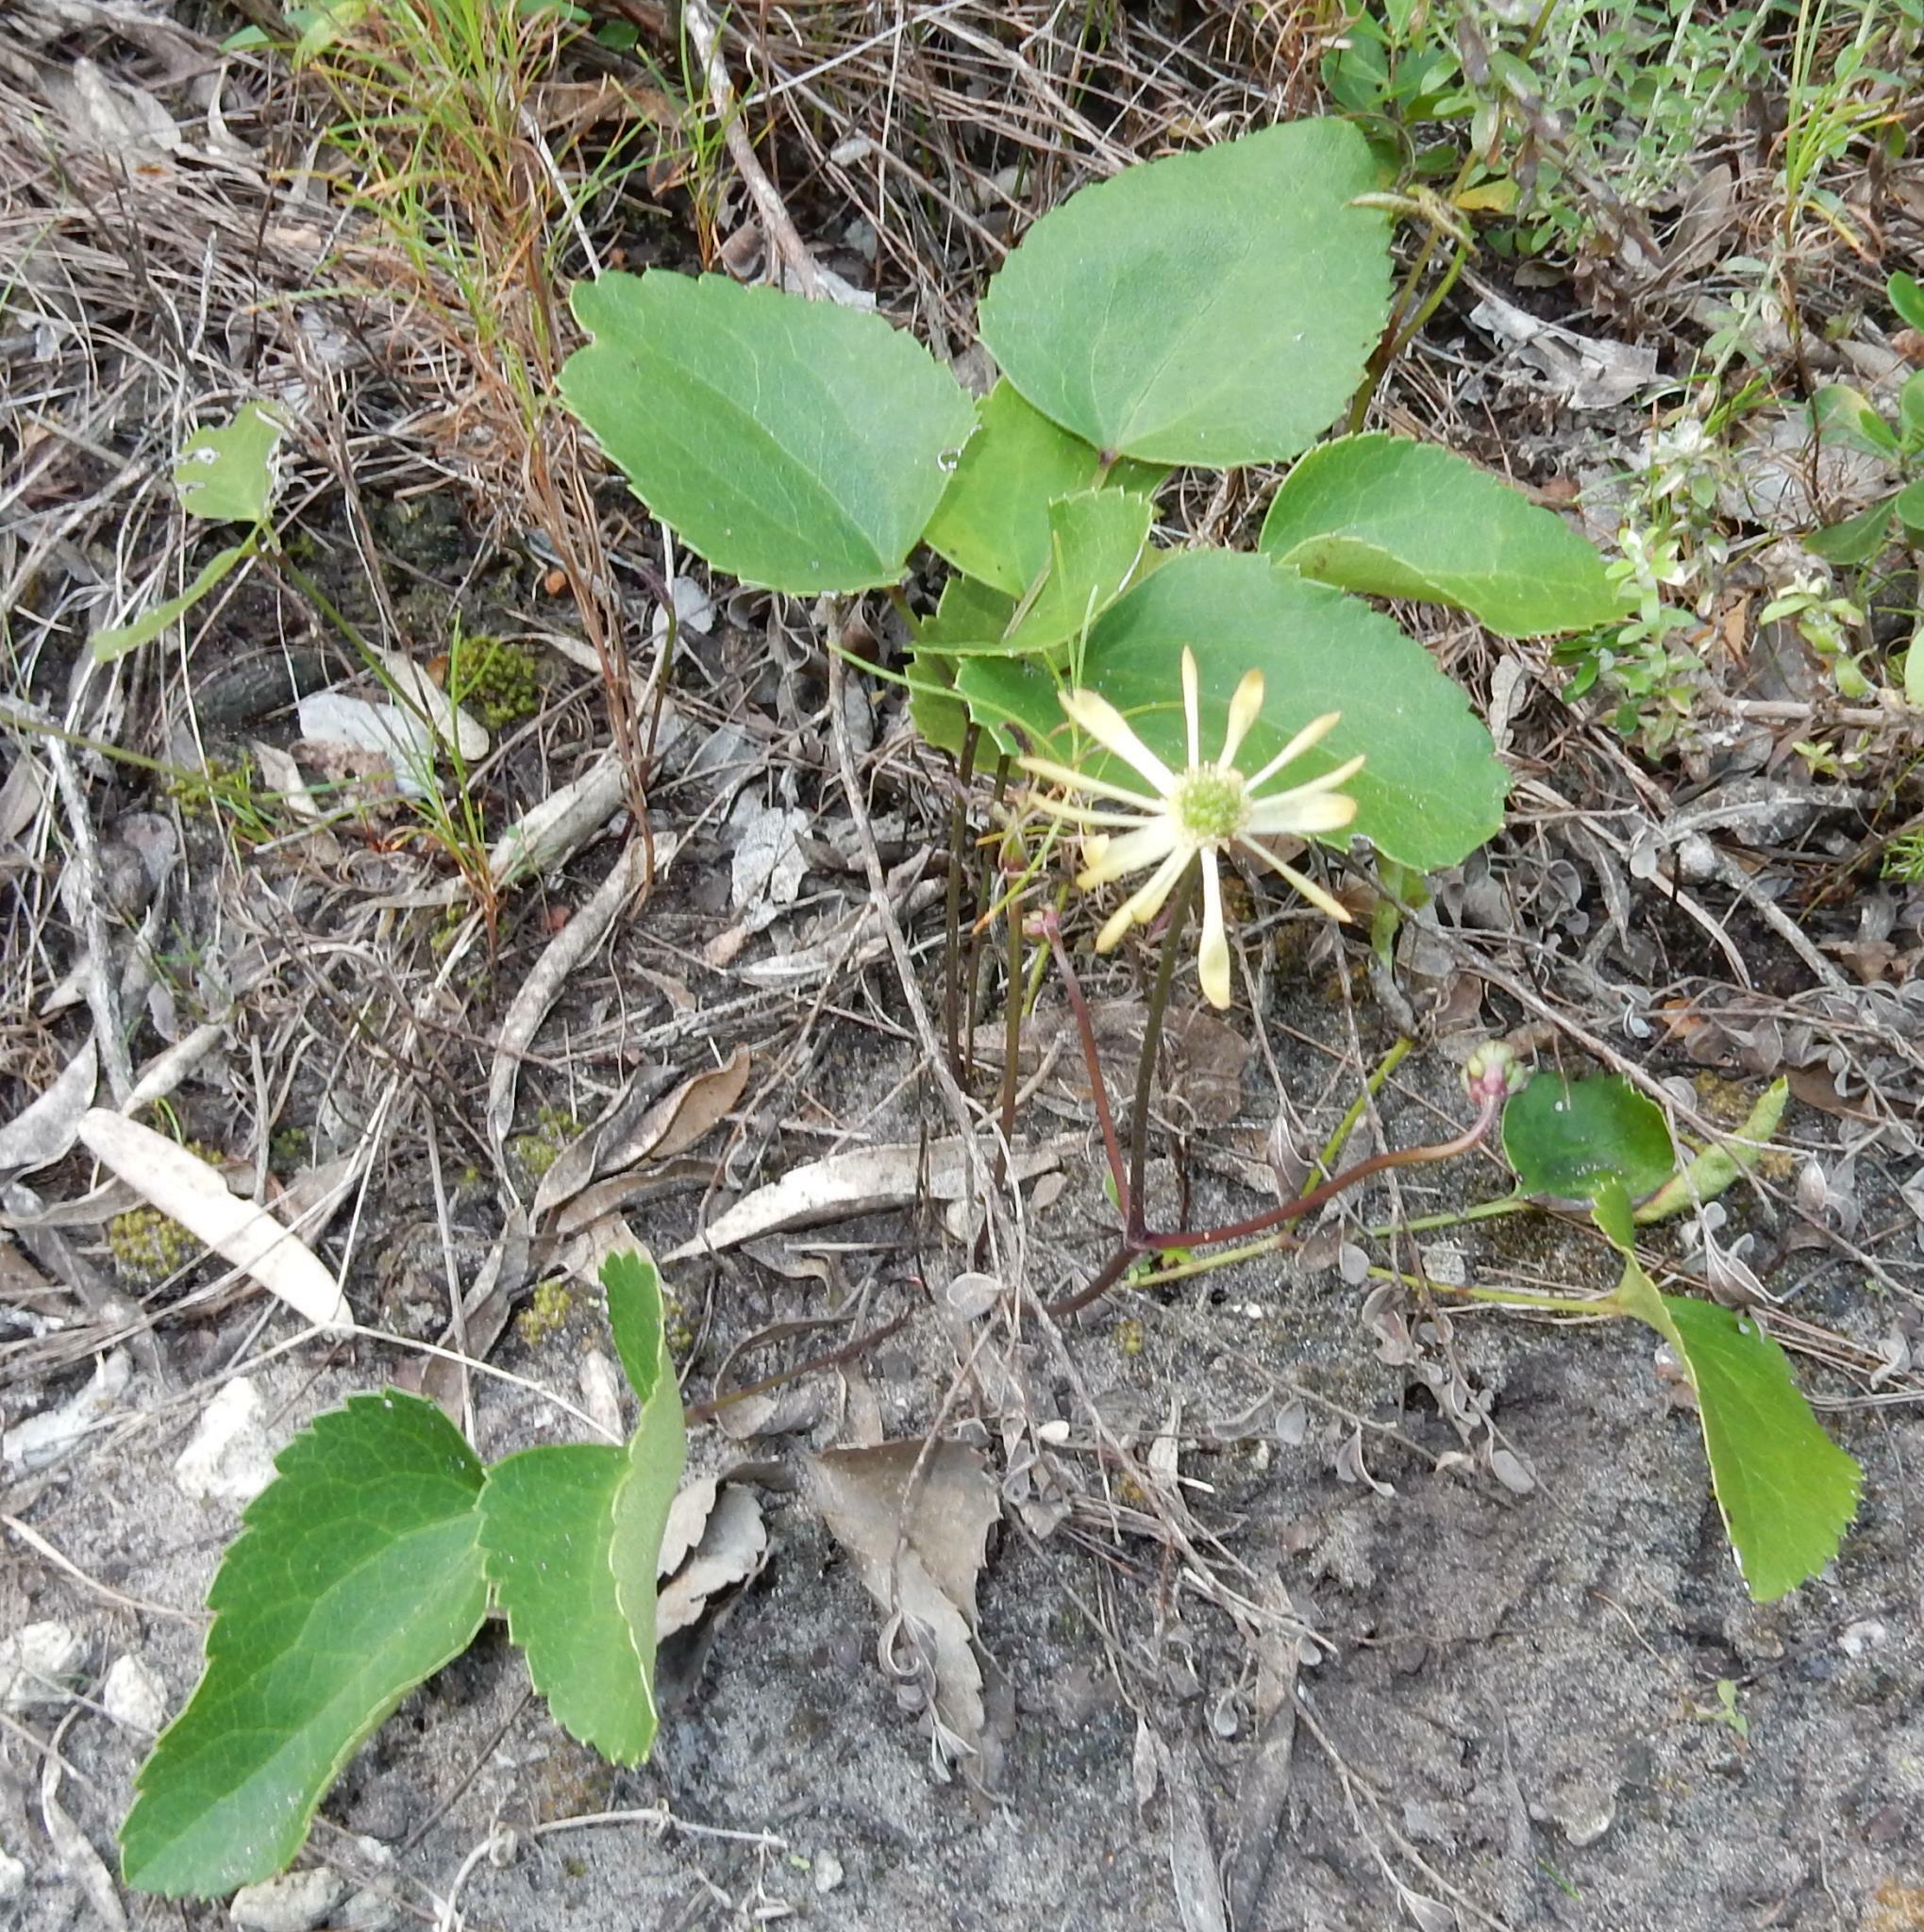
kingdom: Plantae
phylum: Tracheophyta
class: Magnoliopsida
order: Ranunculales
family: Ranunculaceae
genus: Knowltonia
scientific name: Knowltonia vesicatoria
